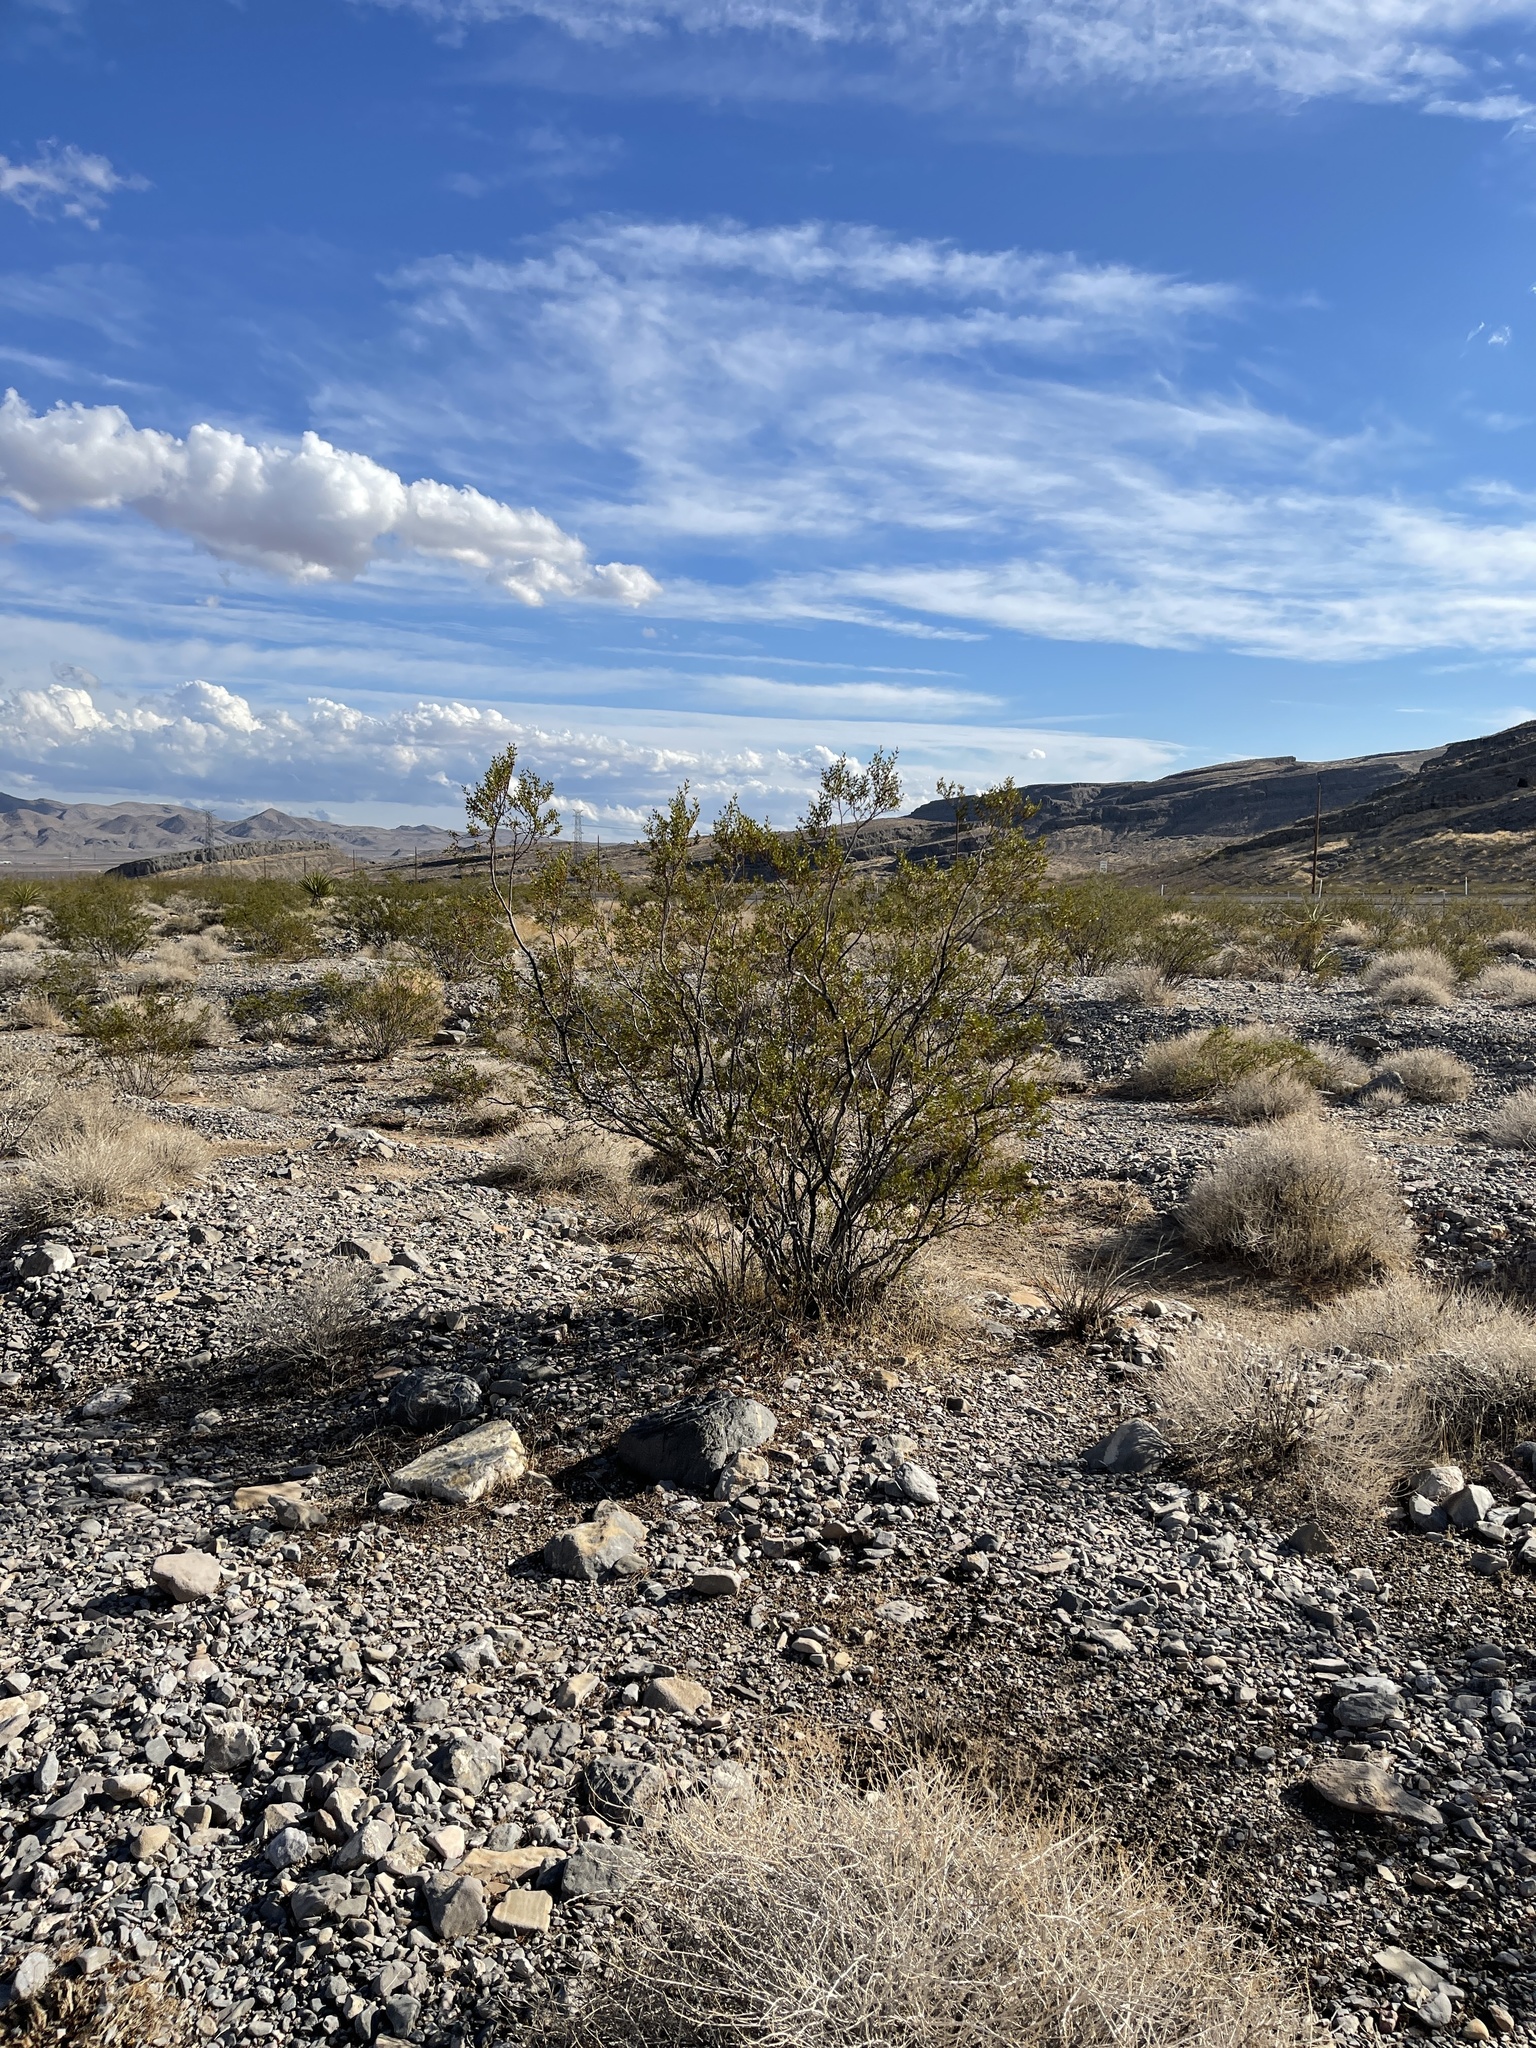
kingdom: Plantae
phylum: Tracheophyta
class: Magnoliopsida
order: Zygophyllales
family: Zygophyllaceae
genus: Larrea
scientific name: Larrea tridentata
